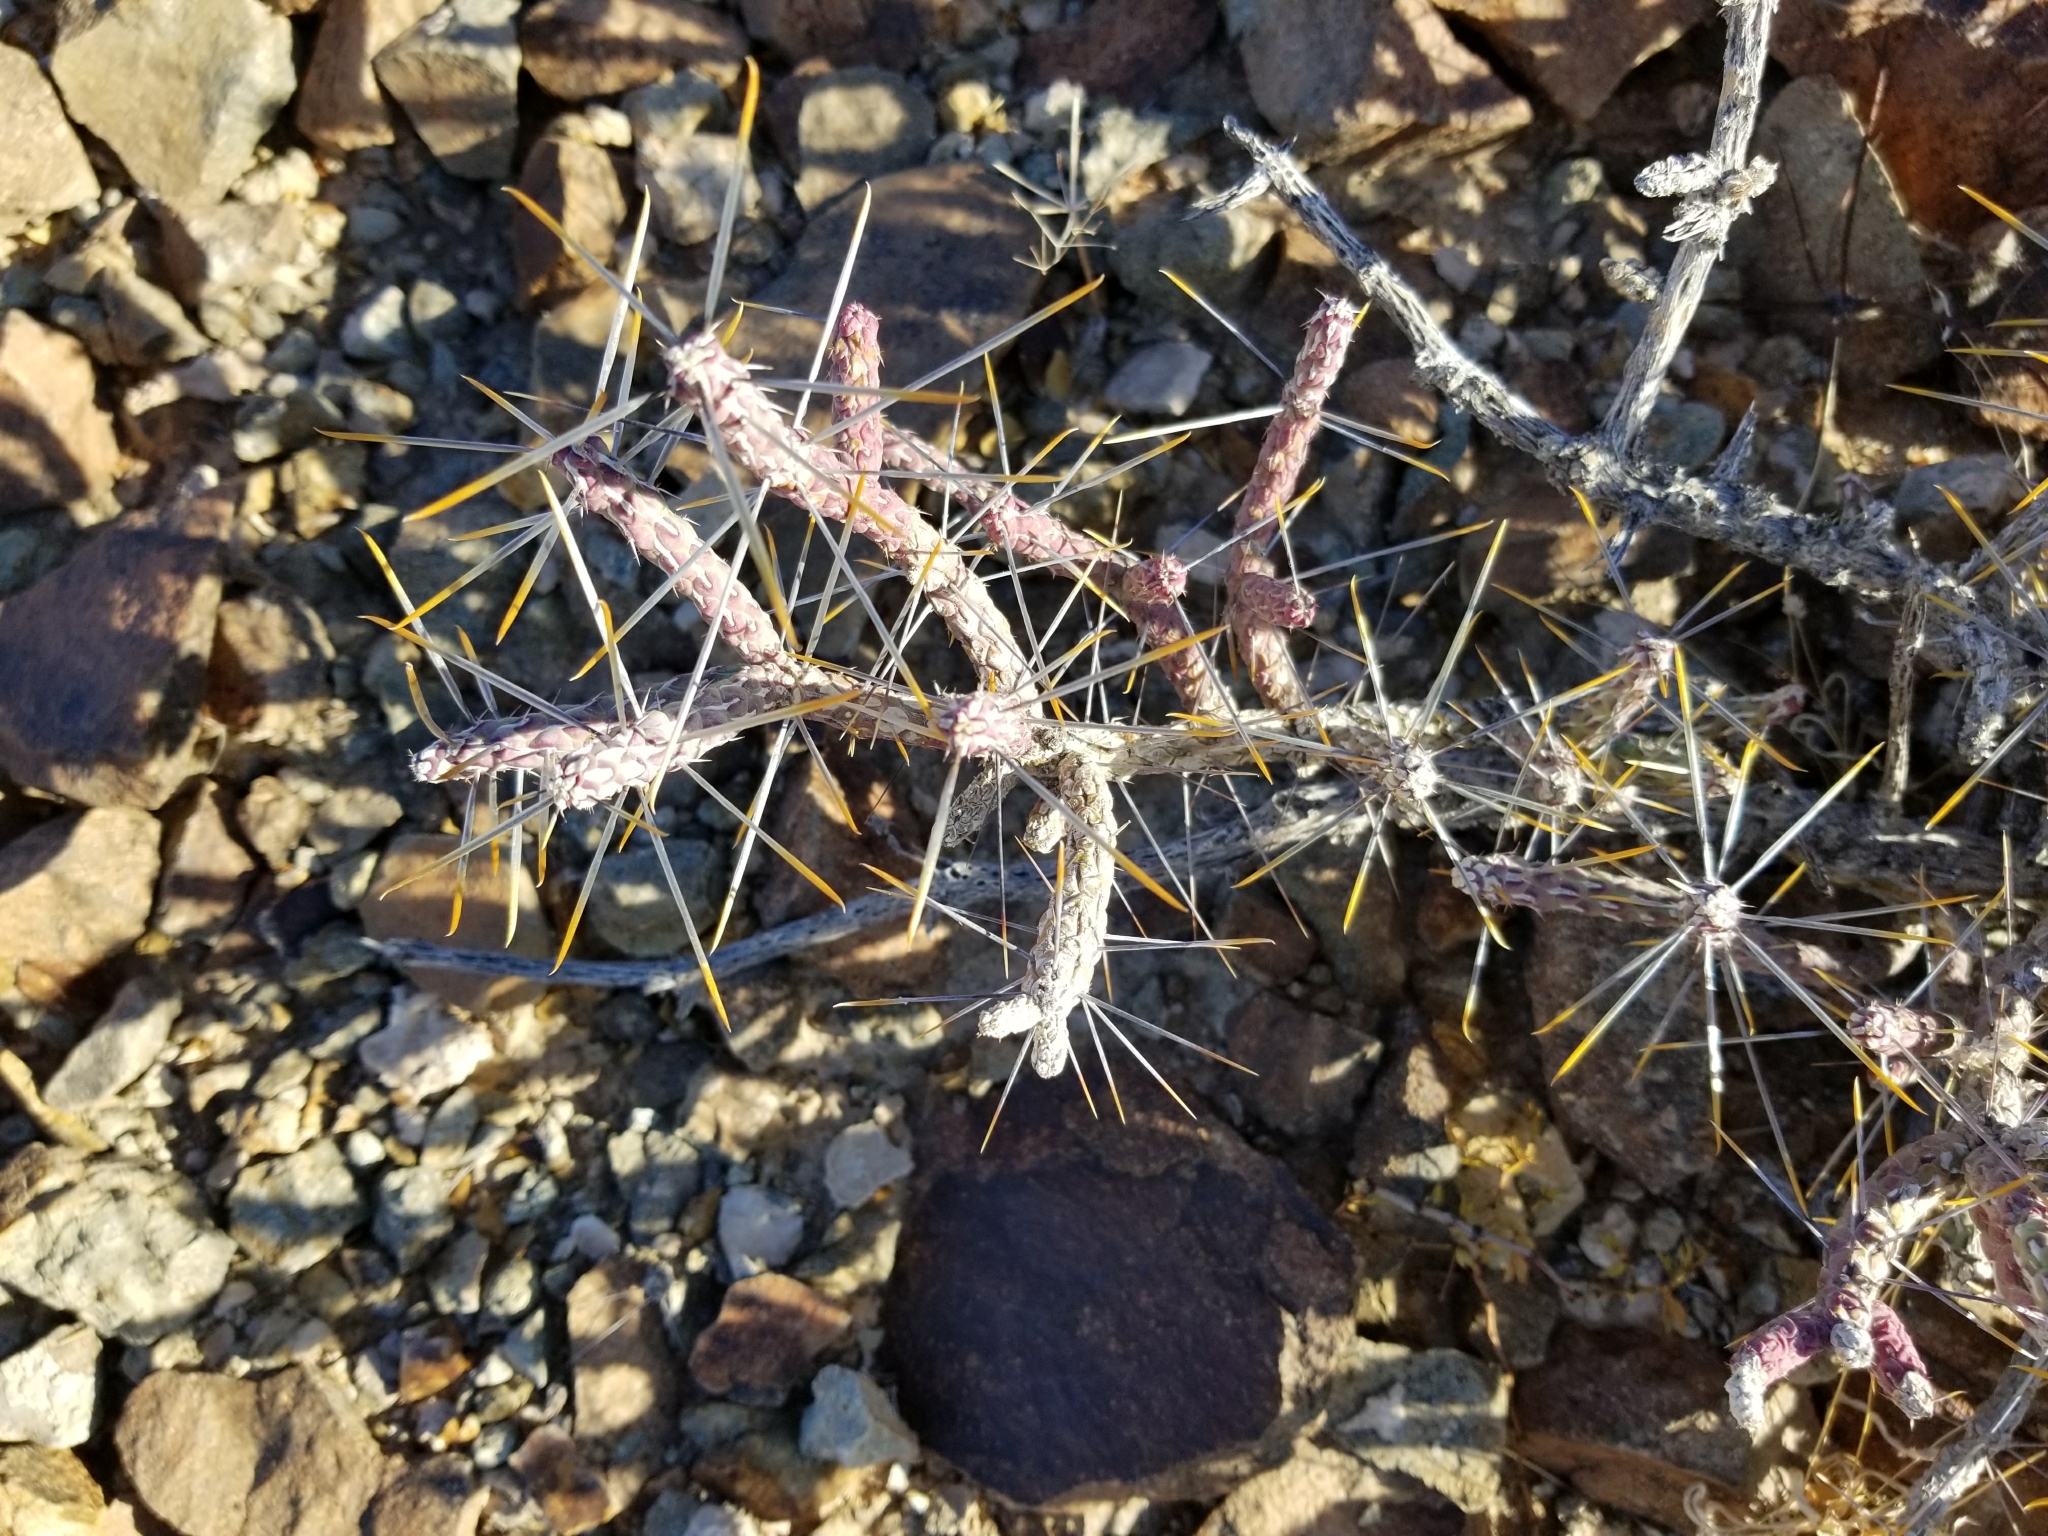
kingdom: Plantae
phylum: Tracheophyta
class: Magnoliopsida
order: Caryophyllales
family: Cactaceae
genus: Cylindropuntia
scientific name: Cylindropuntia ramosissima
